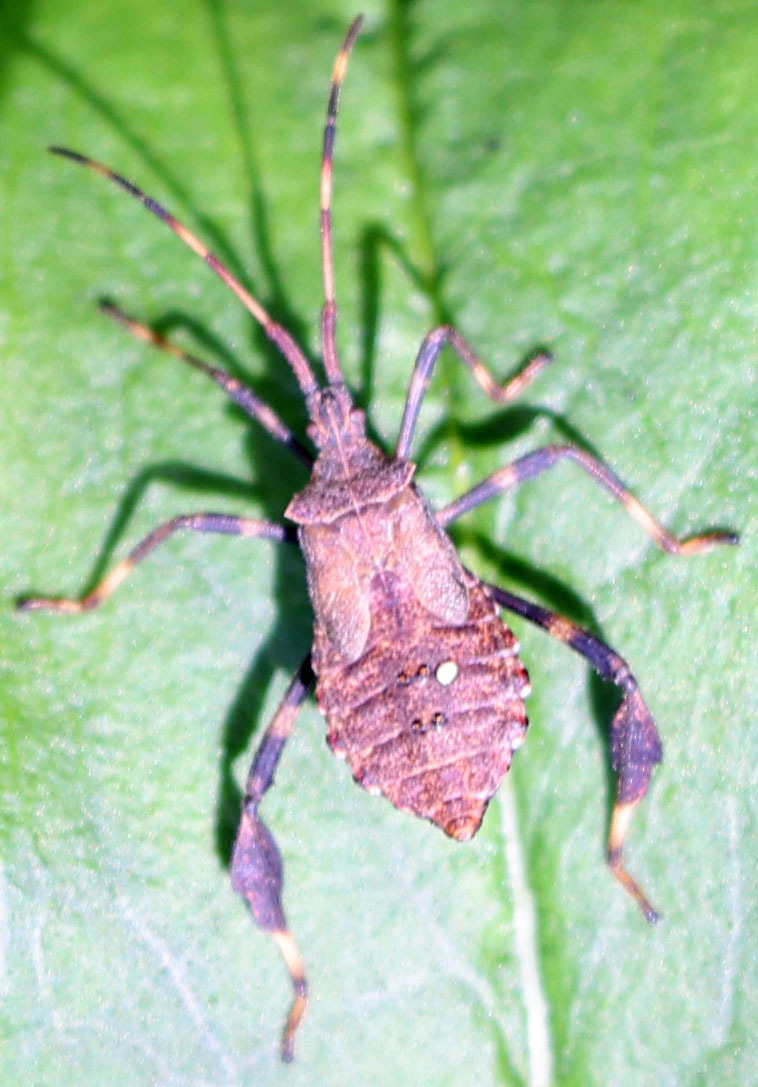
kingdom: Animalia
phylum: Arthropoda
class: Insecta
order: Hemiptera
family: Coreidae
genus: Acanthocephala
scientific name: Acanthocephala terminalis
